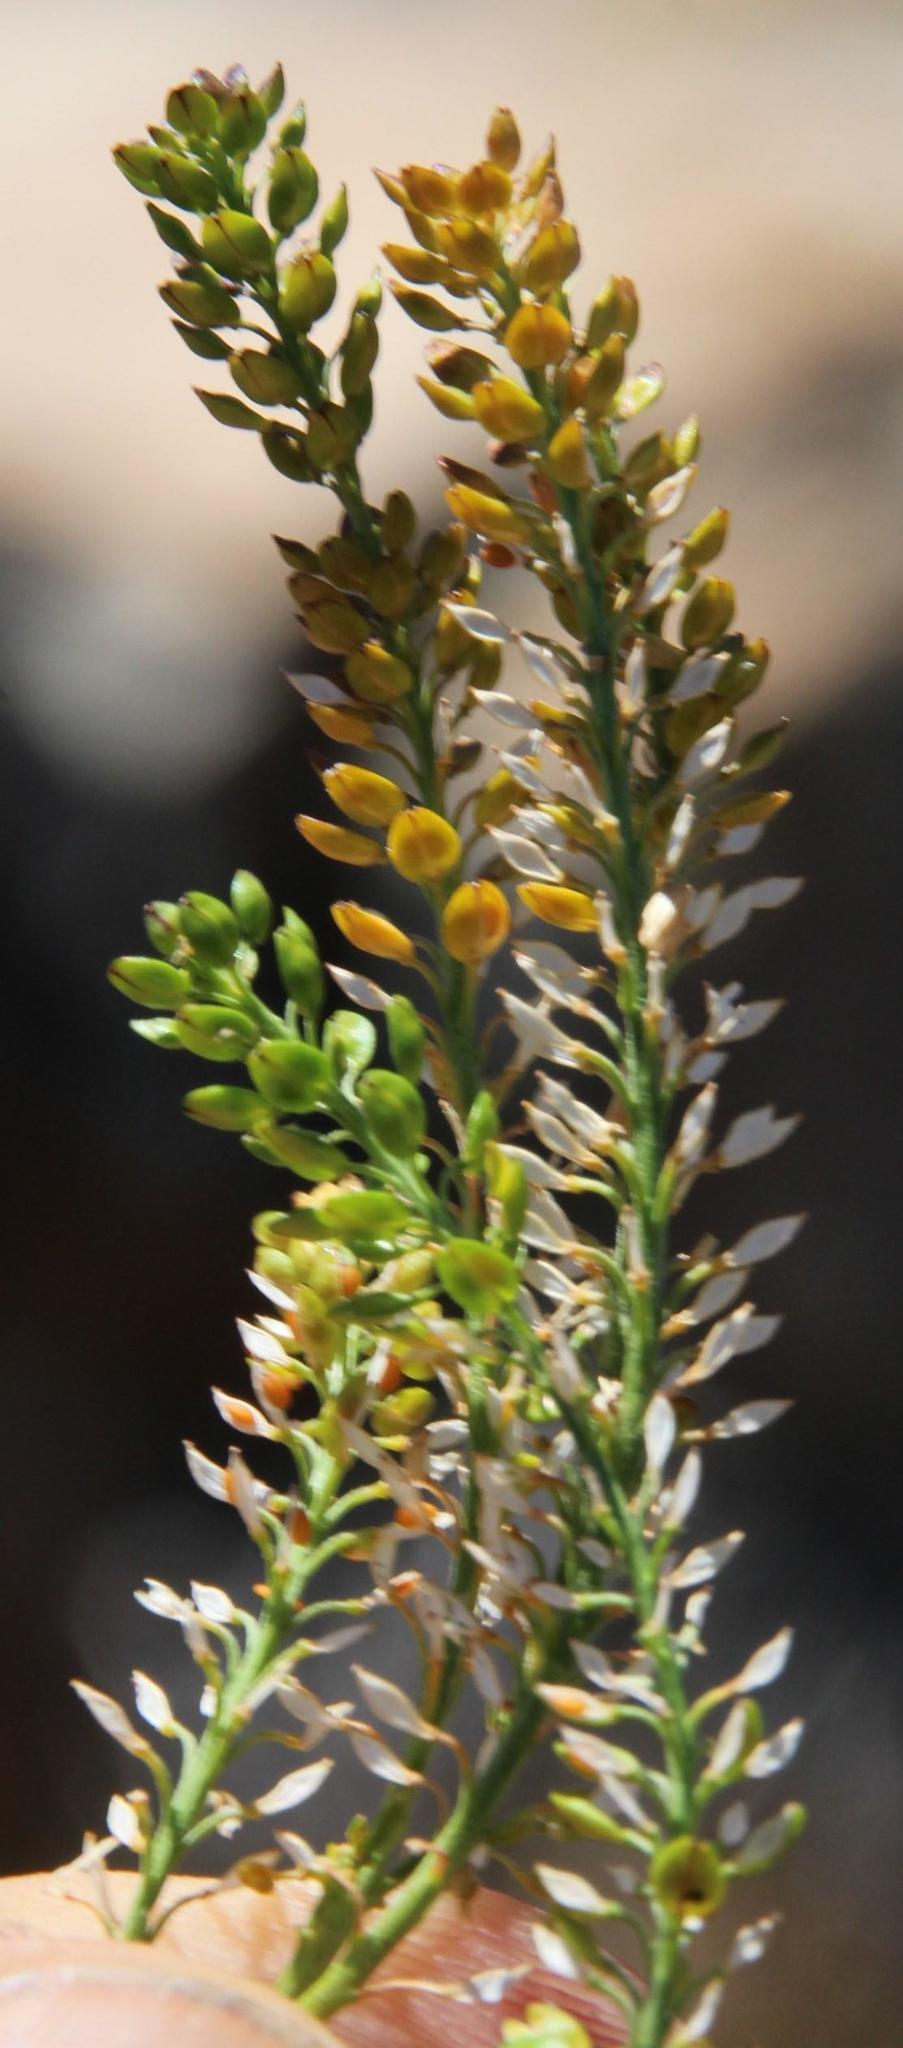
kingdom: Plantae
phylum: Tracheophyta
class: Magnoliopsida
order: Brassicales
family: Brassicaceae
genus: Lepidium
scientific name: Lepidium africanum
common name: African pepperwort
